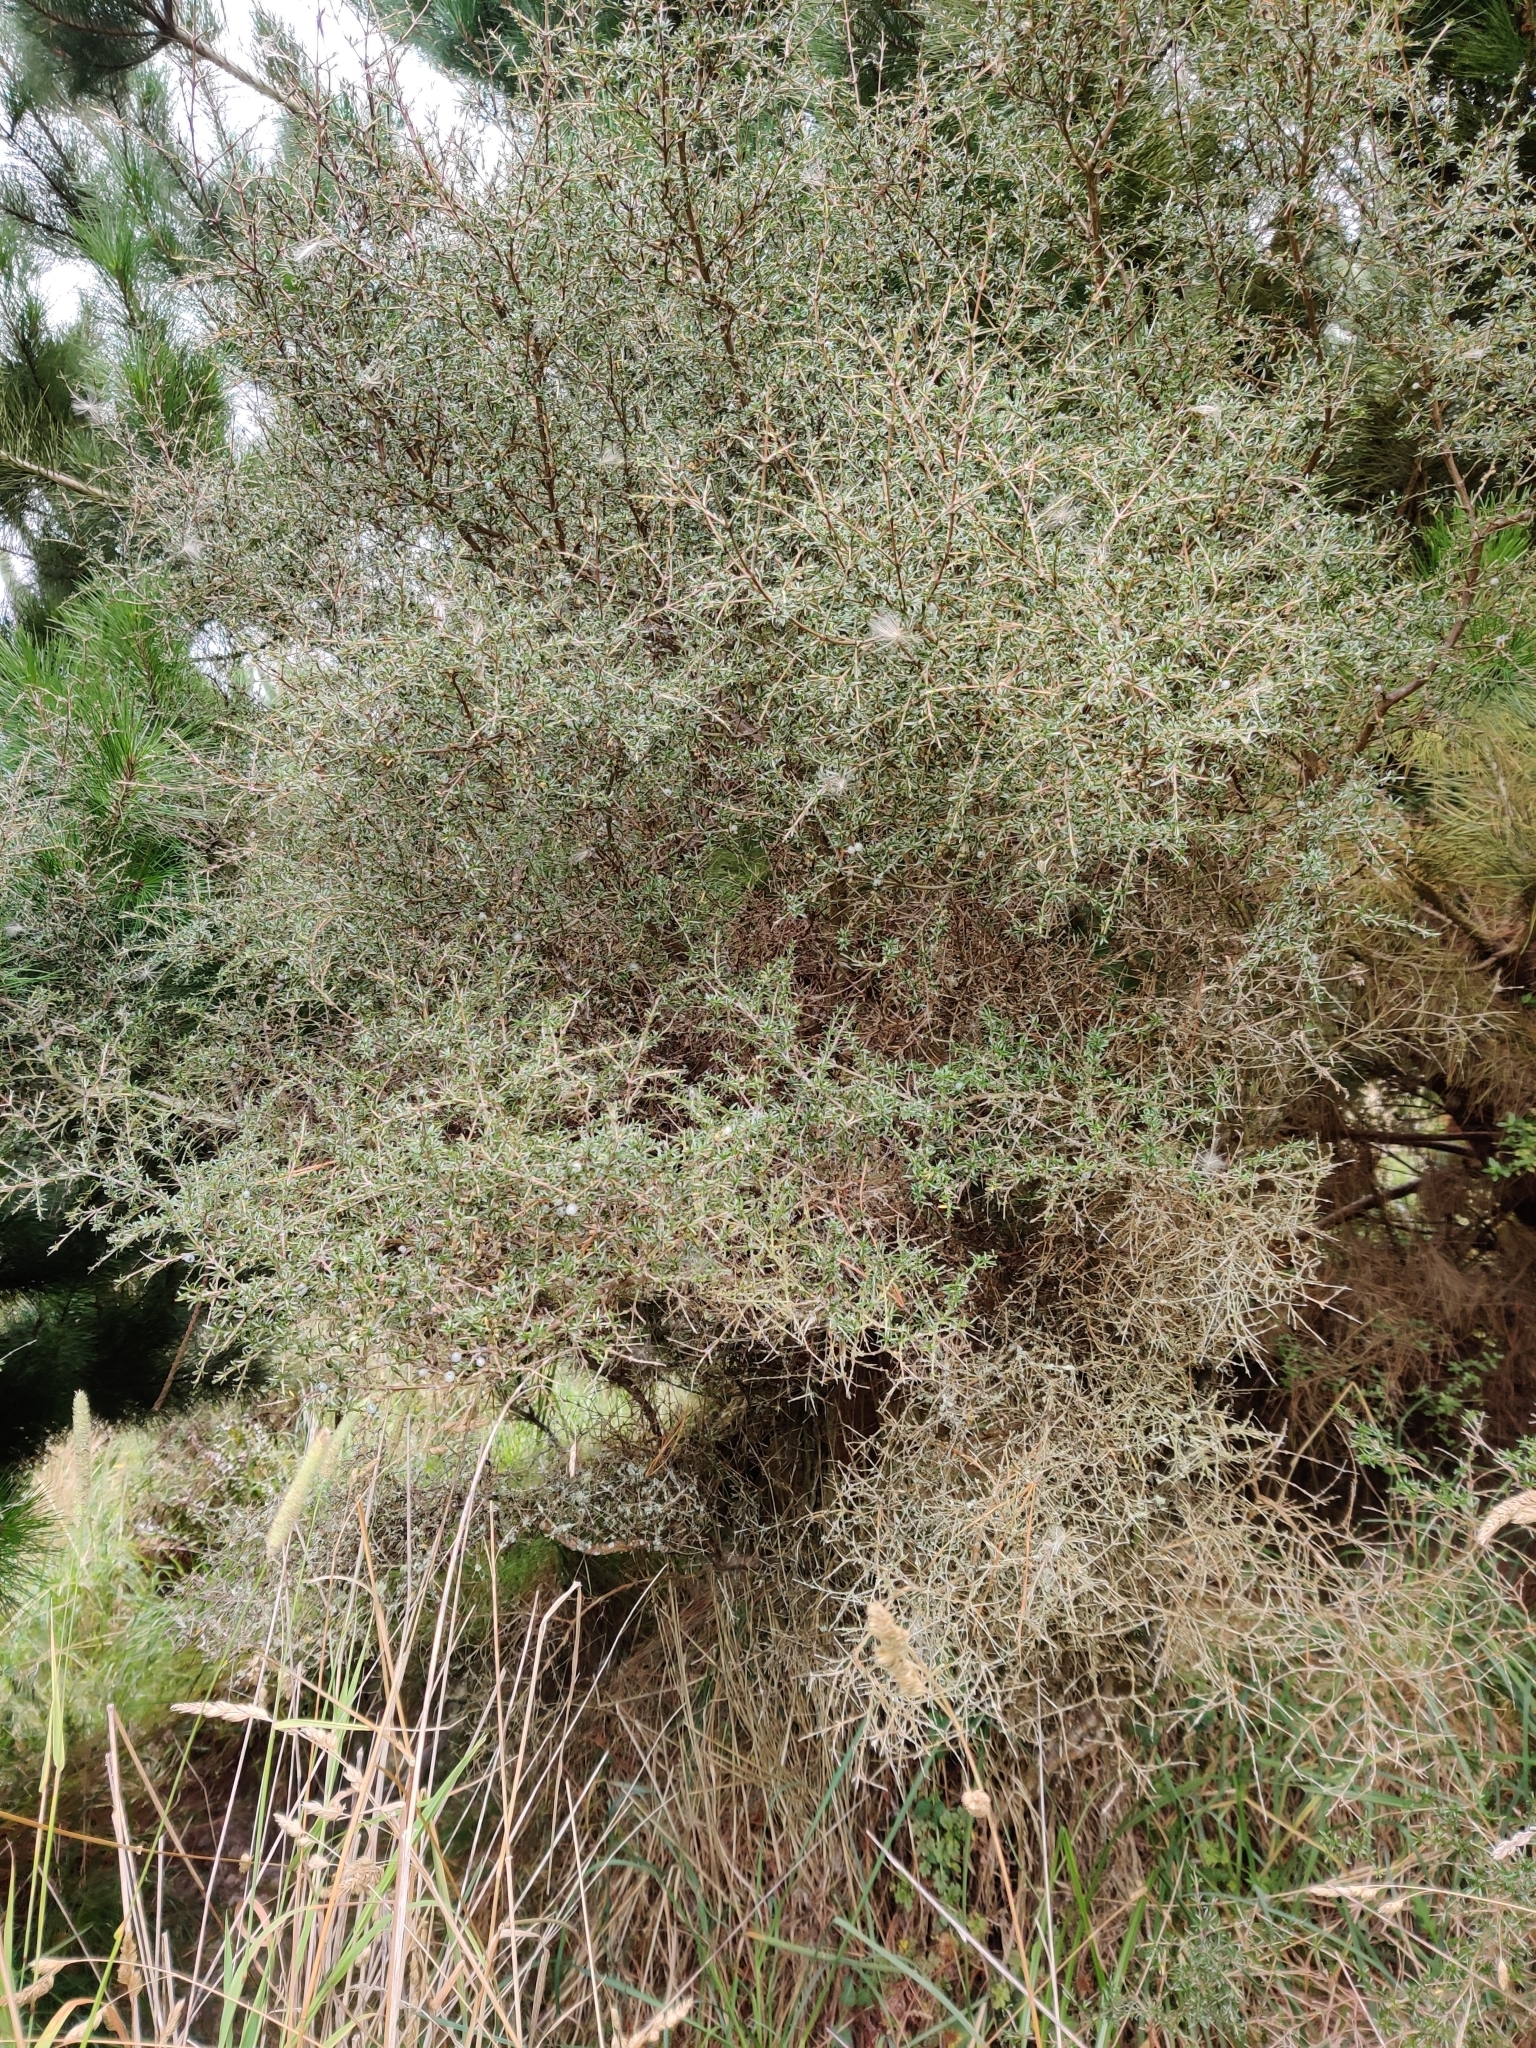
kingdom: Plantae
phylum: Tracheophyta
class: Magnoliopsida
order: Gentianales
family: Rubiaceae
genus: Coprosma
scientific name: Coprosma rugosa
